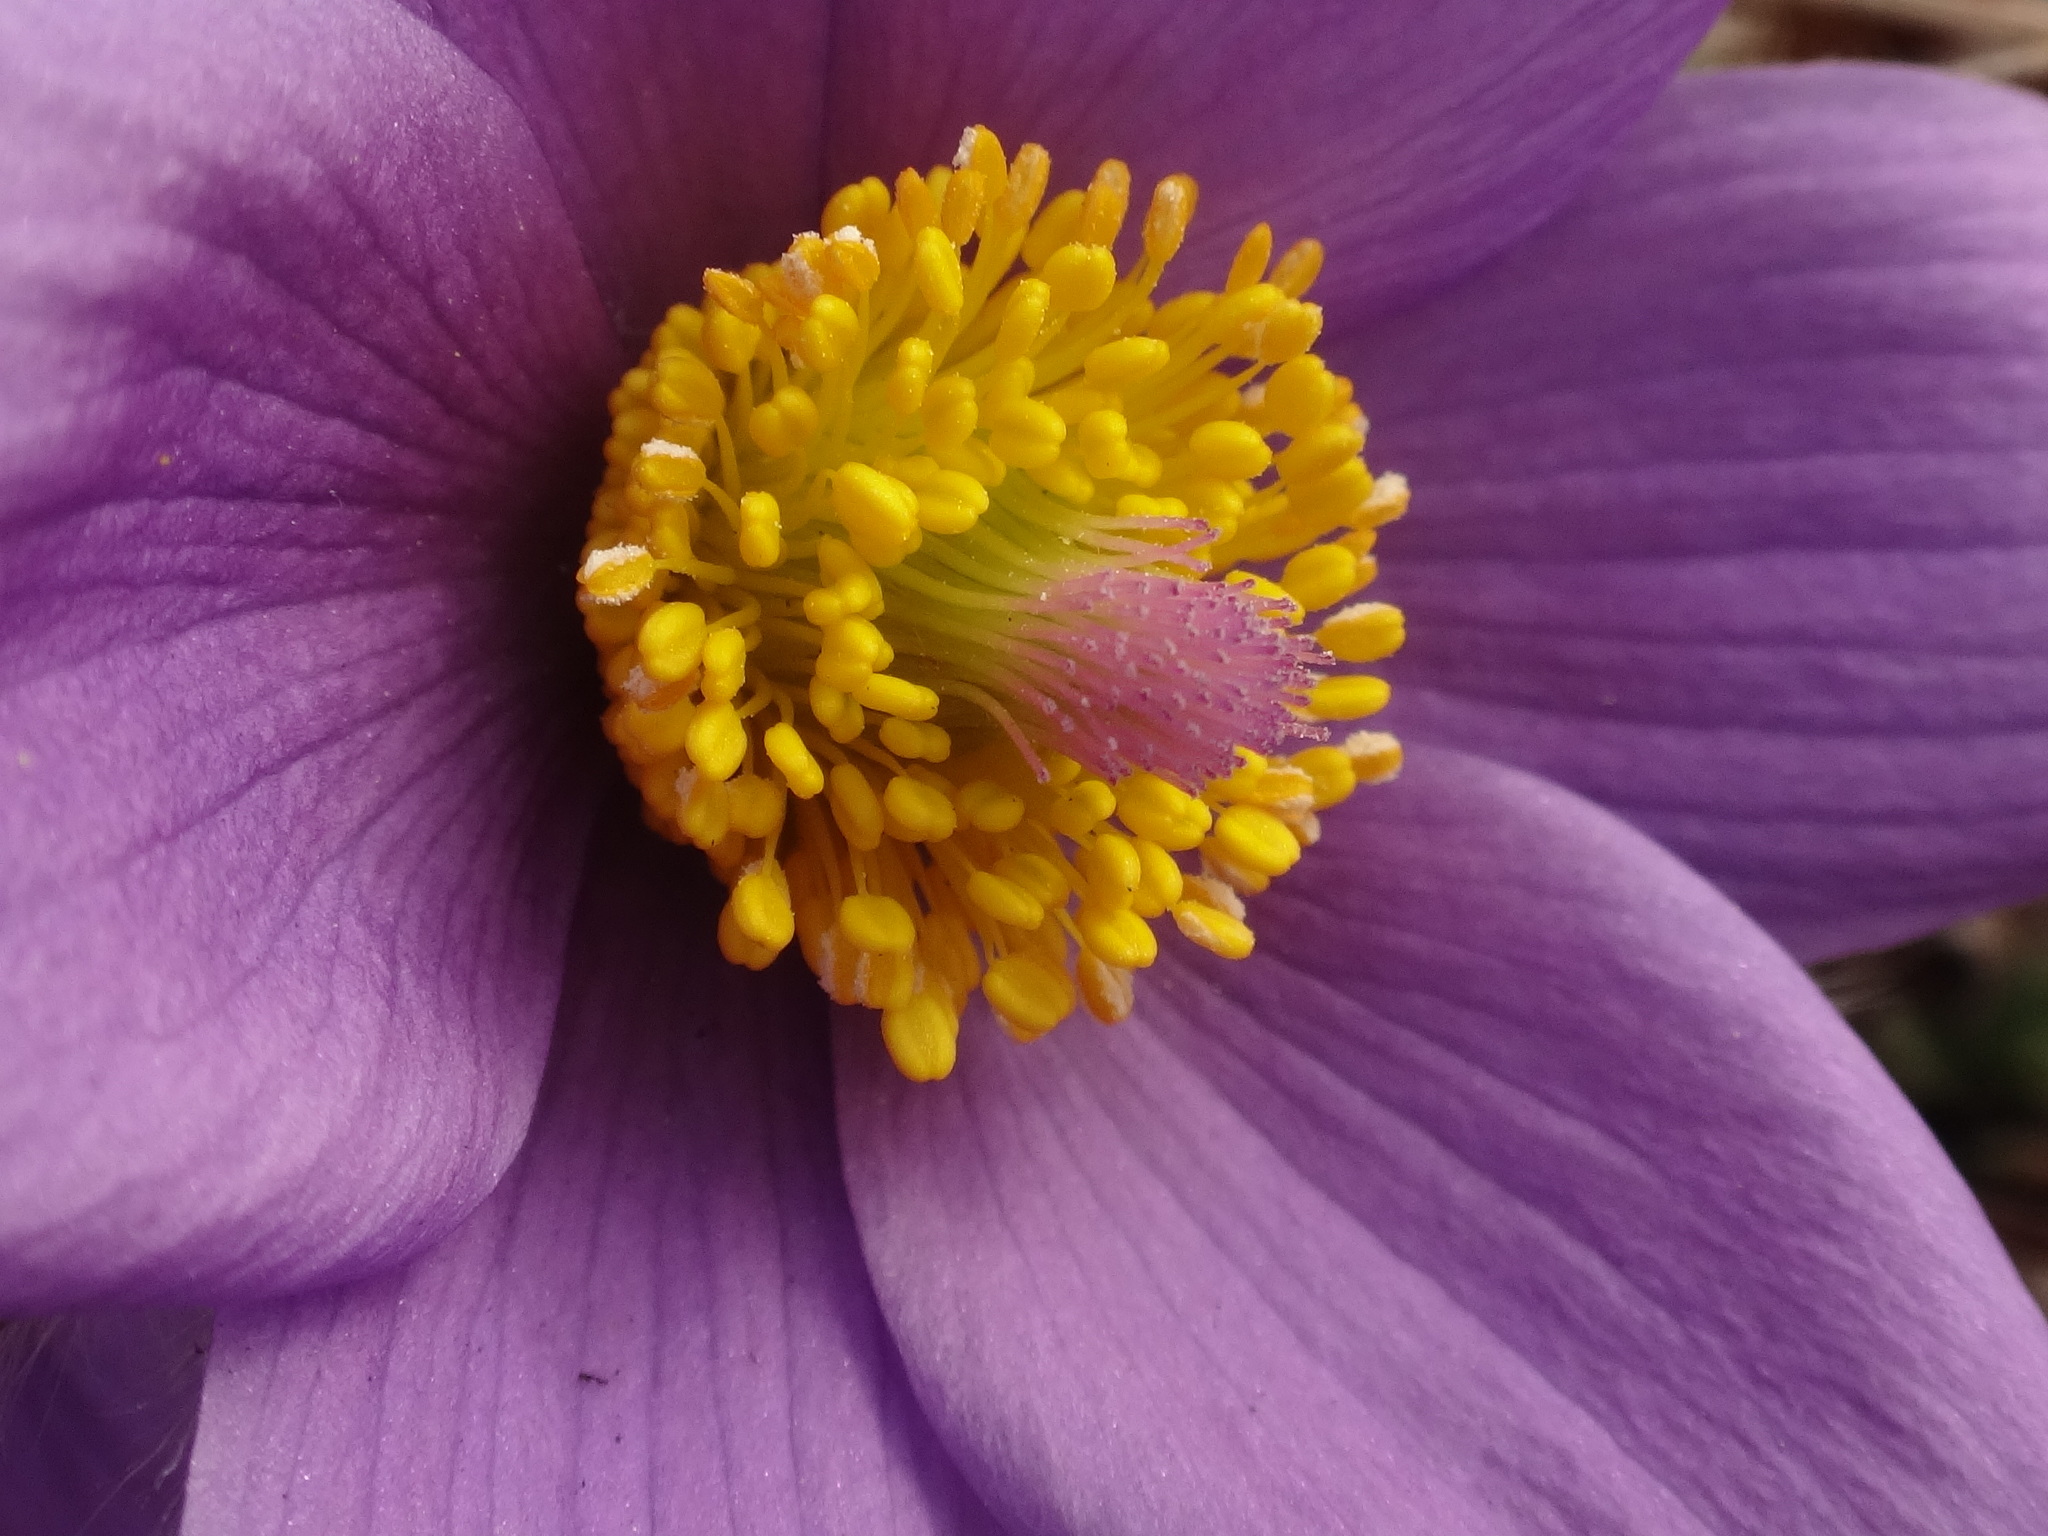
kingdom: Plantae
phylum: Tracheophyta
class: Magnoliopsida
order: Ranunculales
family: Ranunculaceae
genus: Pulsatilla
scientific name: Pulsatilla halleri
